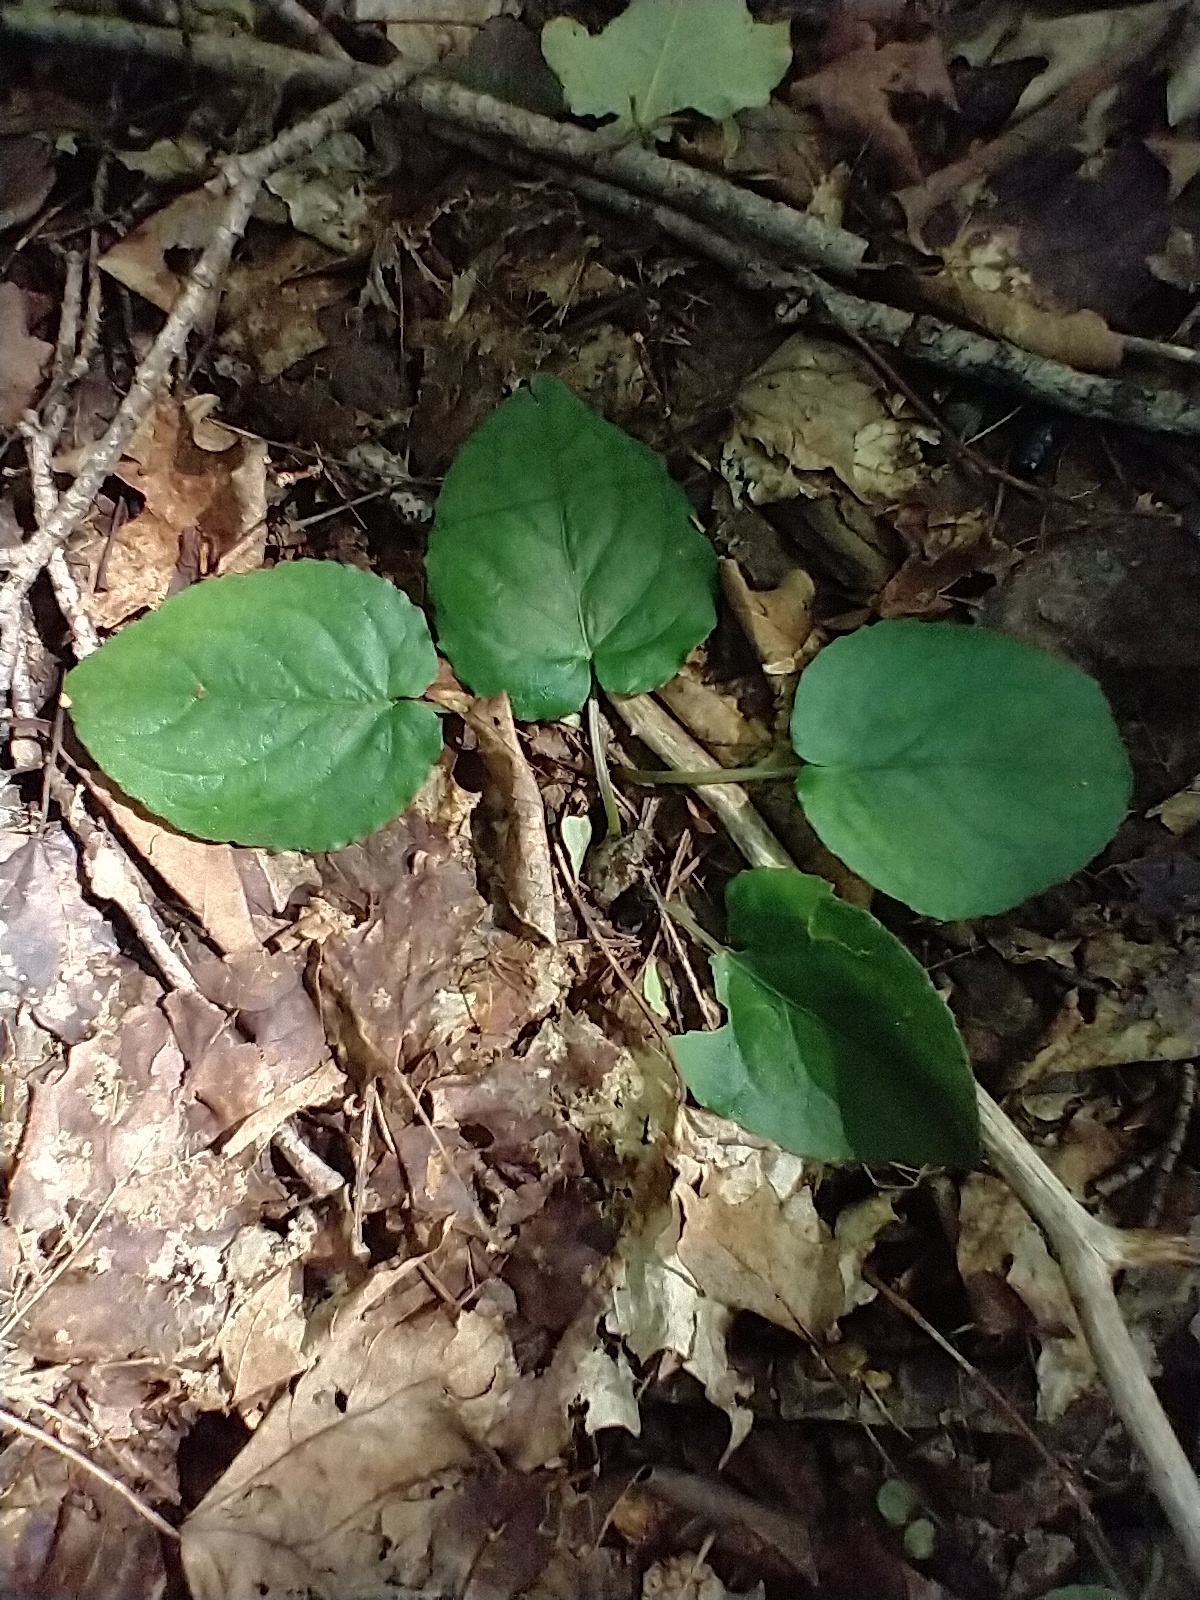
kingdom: Plantae
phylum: Tracheophyta
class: Magnoliopsida
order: Malpighiales
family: Violaceae
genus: Viola
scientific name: Viola rotundifolia
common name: Early yellow violet
